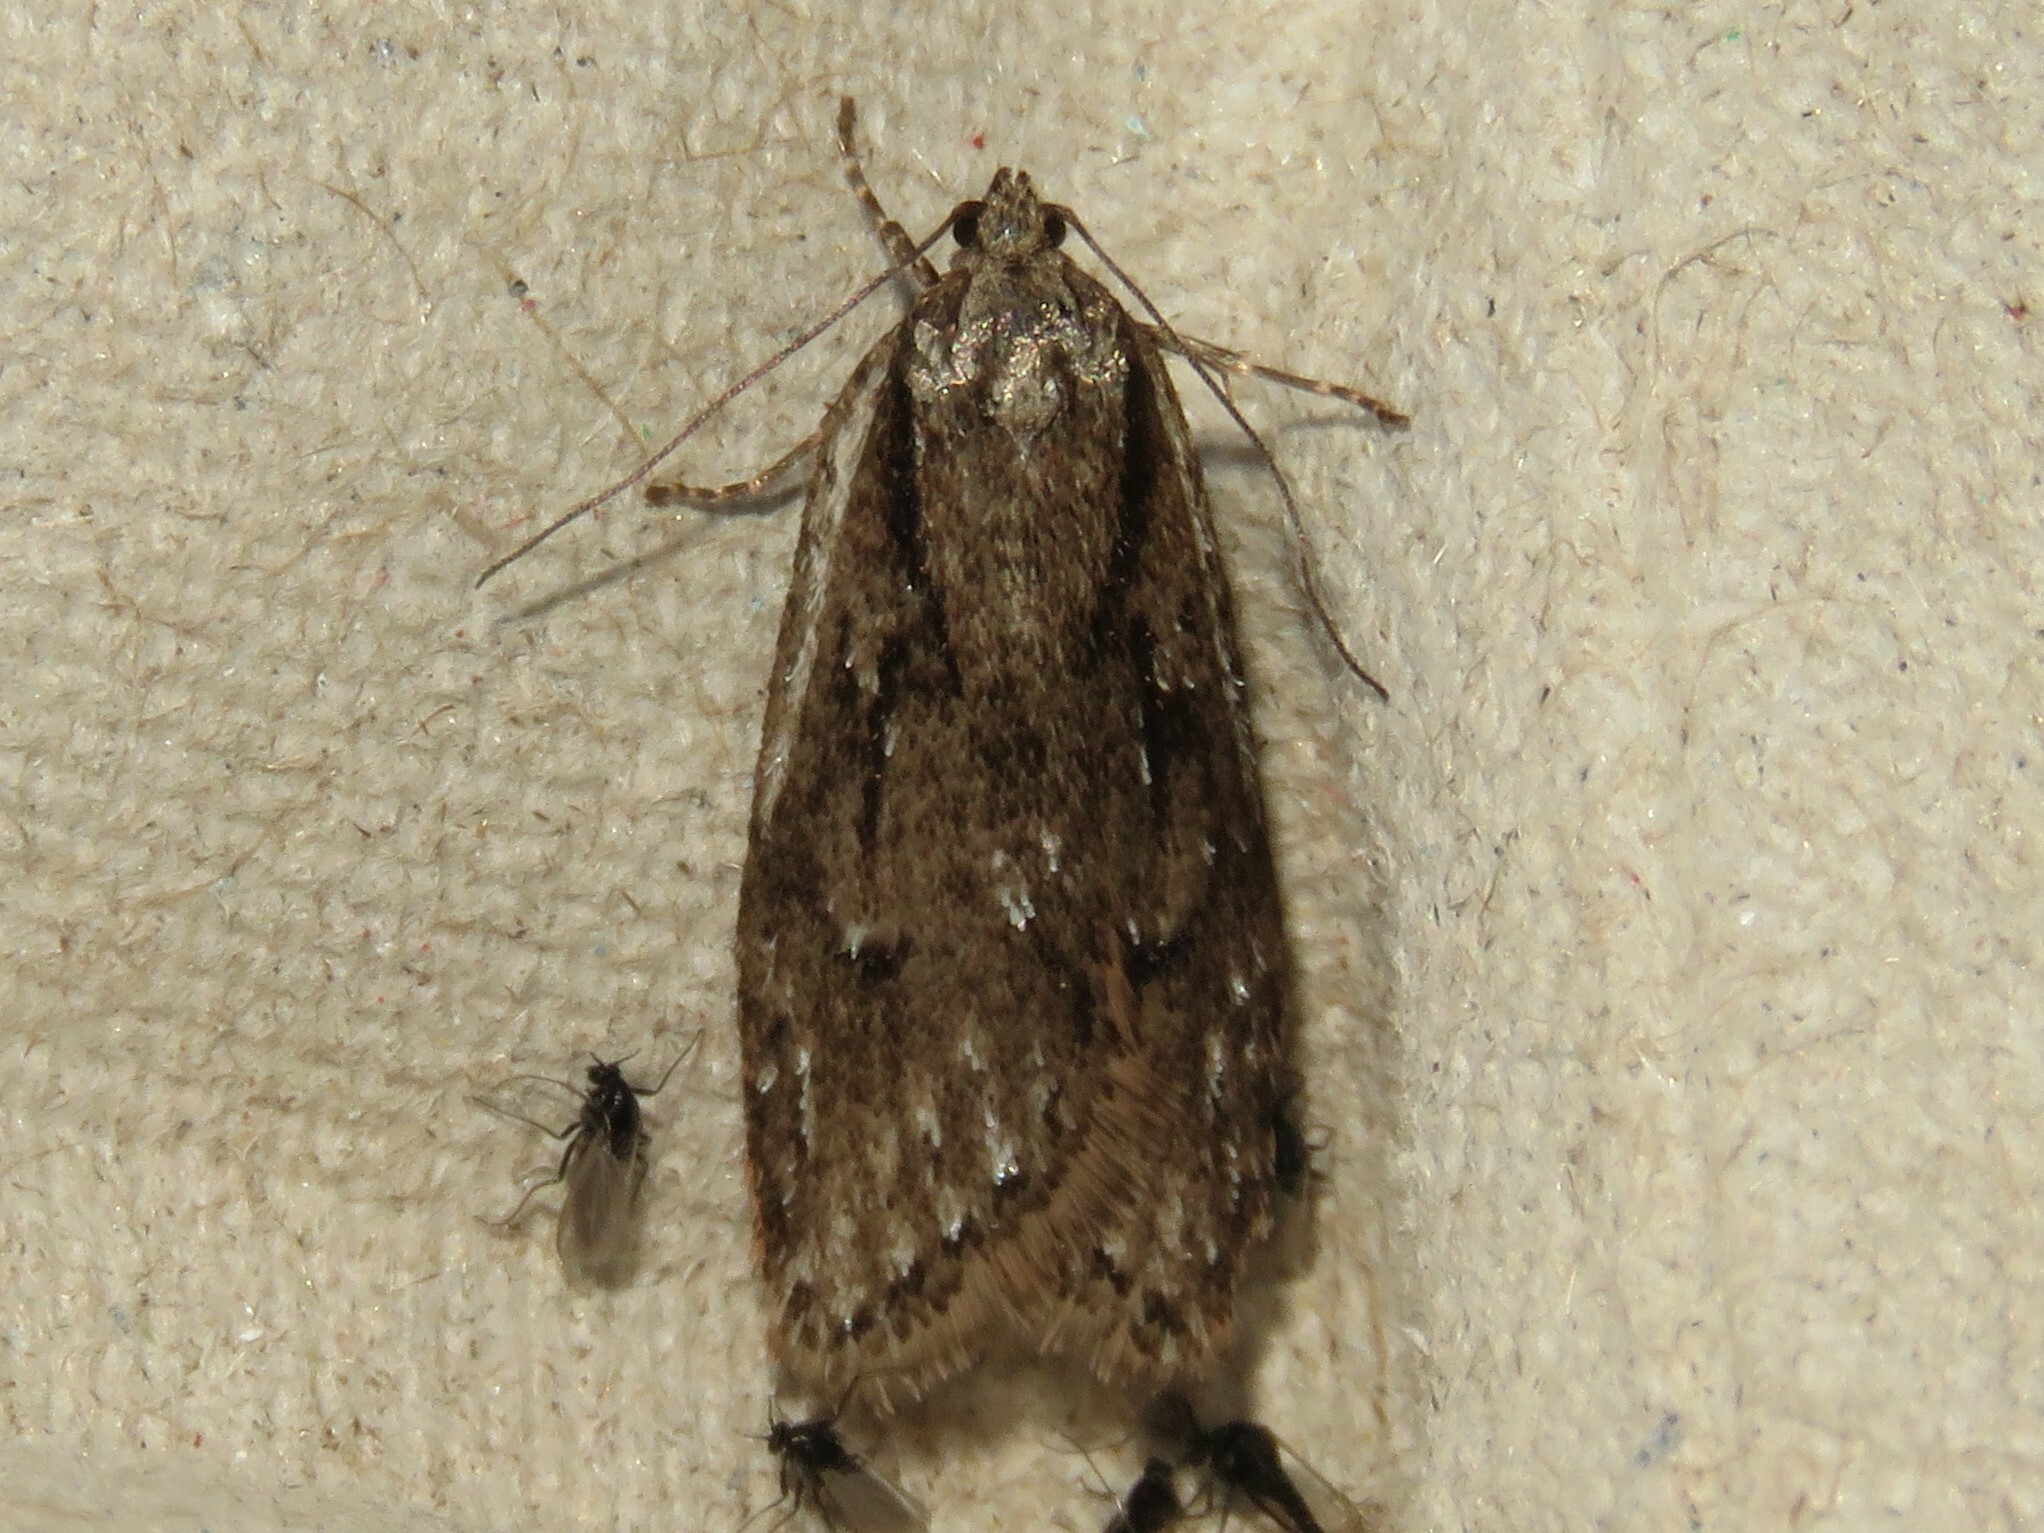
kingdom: Animalia
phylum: Arthropoda
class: Insecta
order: Lepidoptera
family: Depressariidae
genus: Semioscopis
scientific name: Semioscopis aurorella
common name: Aurora flatbody moth
